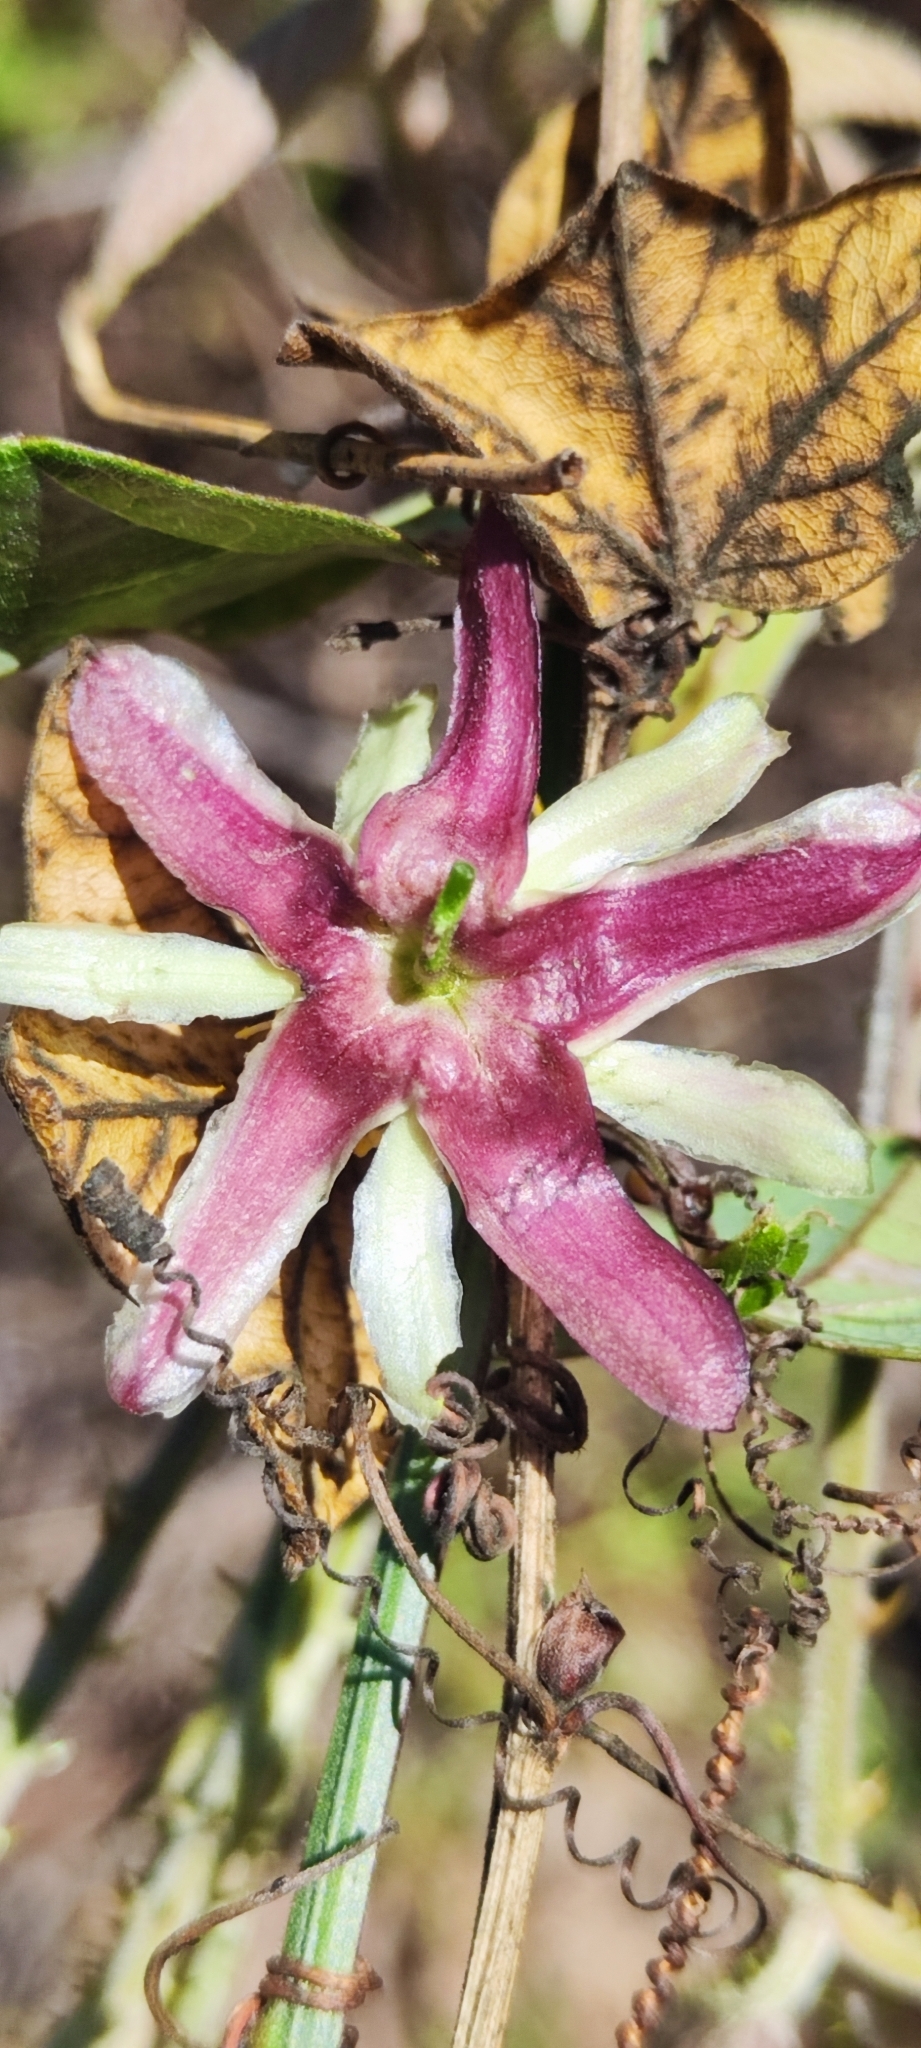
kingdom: Plantae
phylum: Tracheophyta
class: Magnoliopsida
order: Malpighiales
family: Passifloraceae
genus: Passiflora
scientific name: Passiflora sagasteguii
